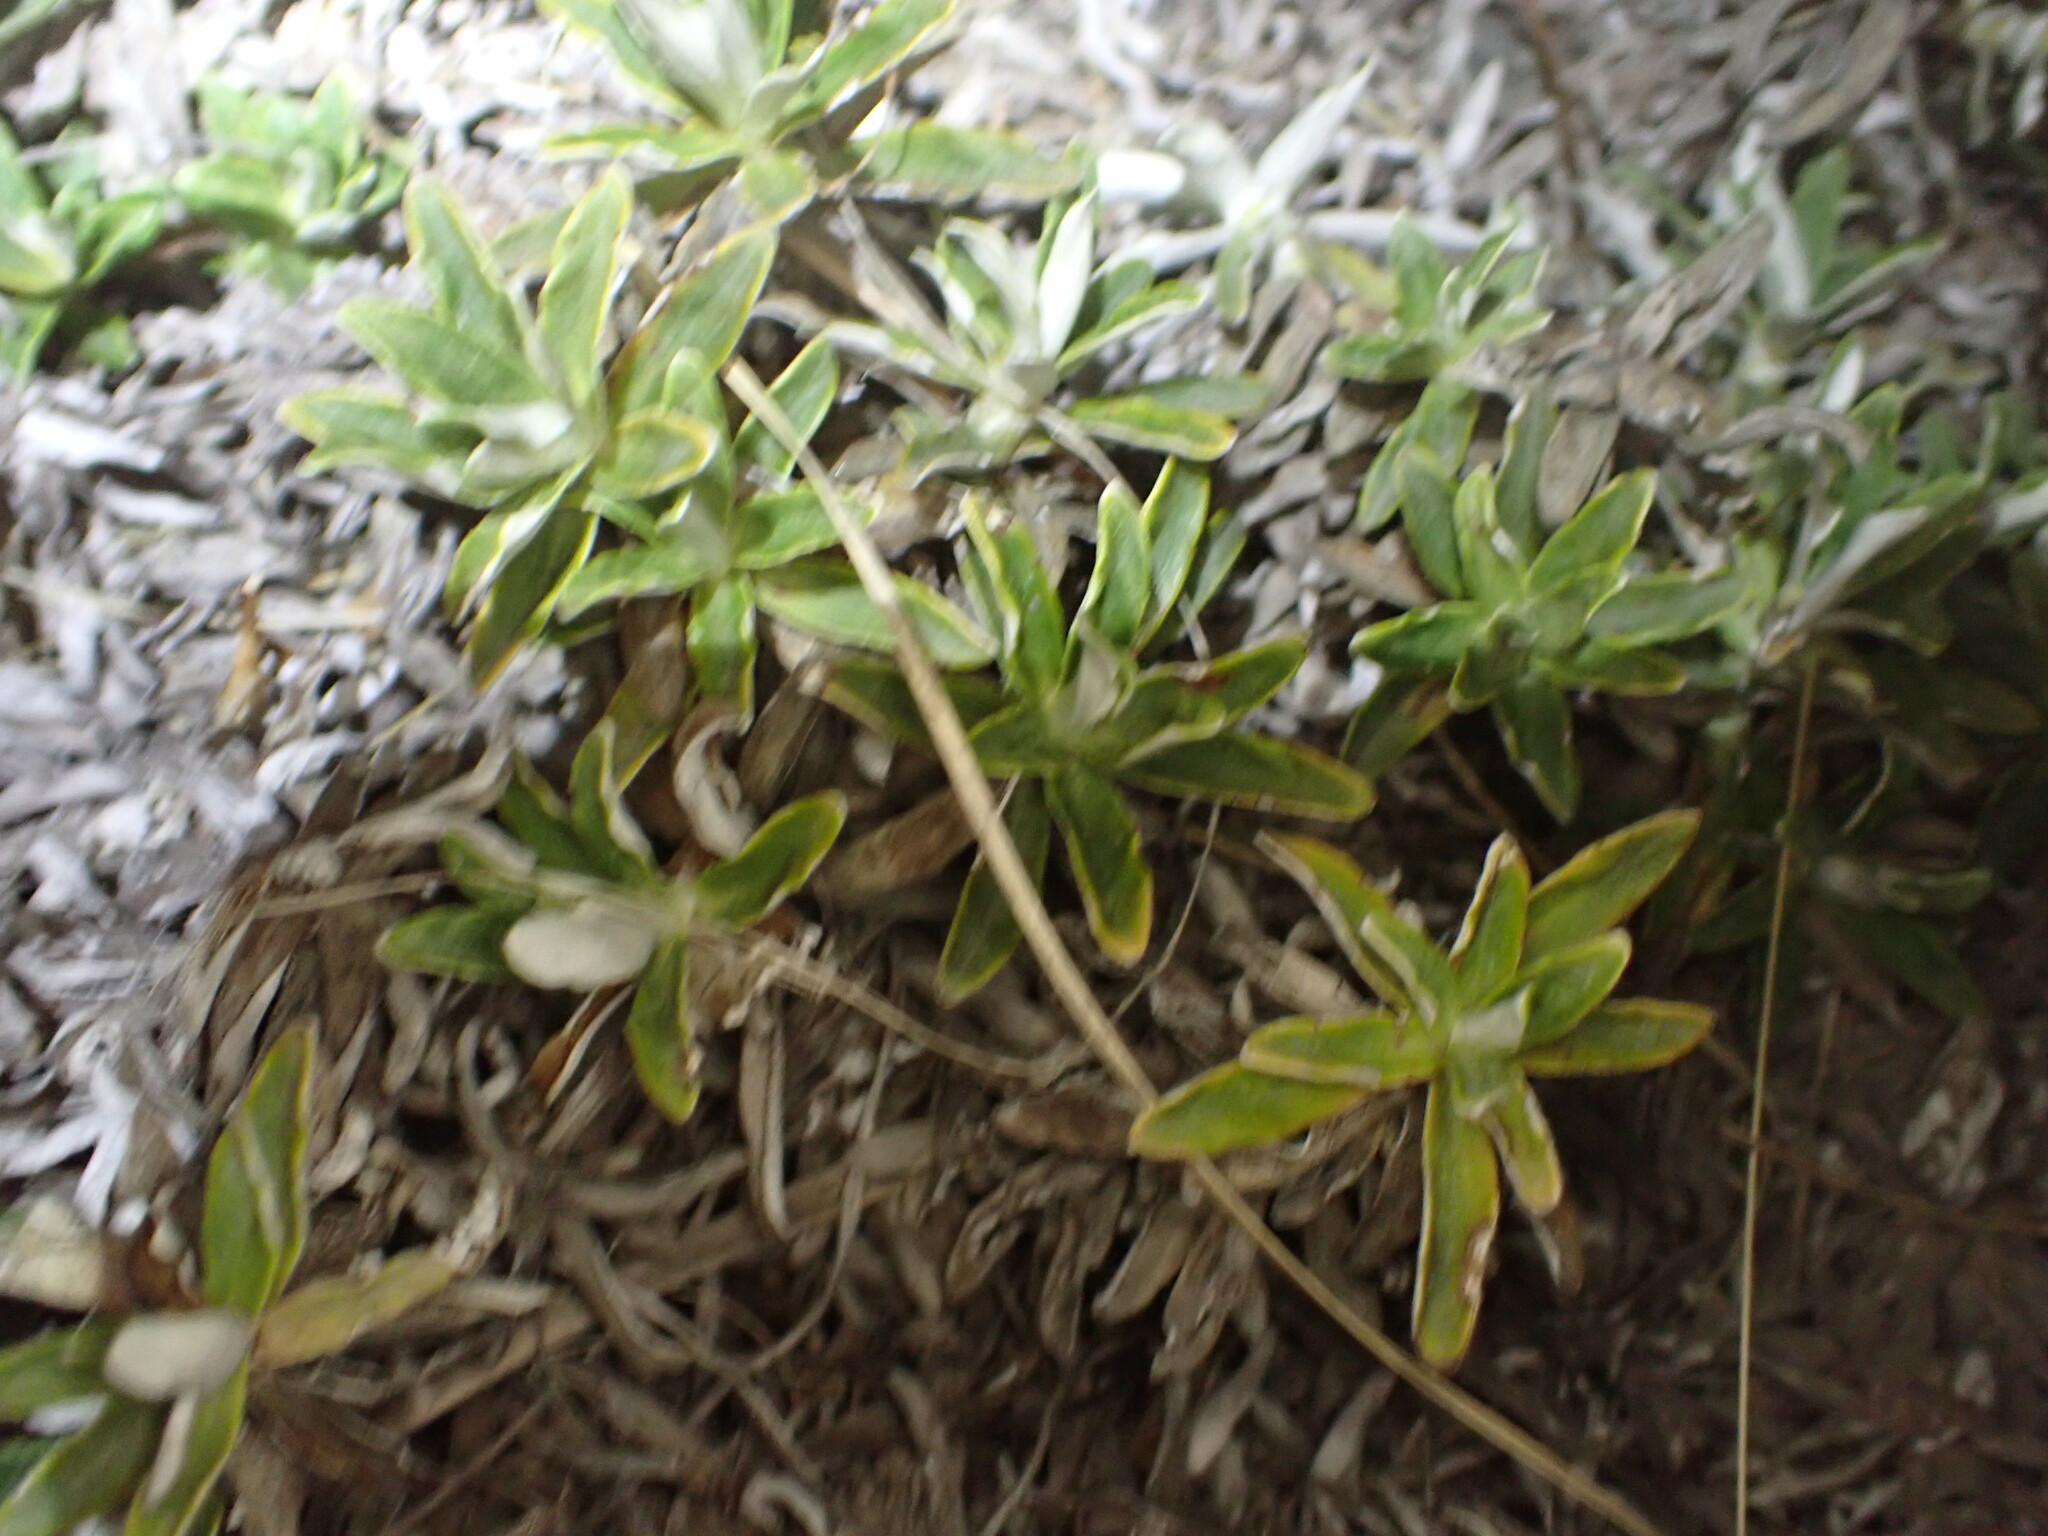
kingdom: Plantae
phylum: Tracheophyta
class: Magnoliopsida
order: Asterales
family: Asteraceae
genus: Celmisia
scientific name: Celmisia angustifolia
